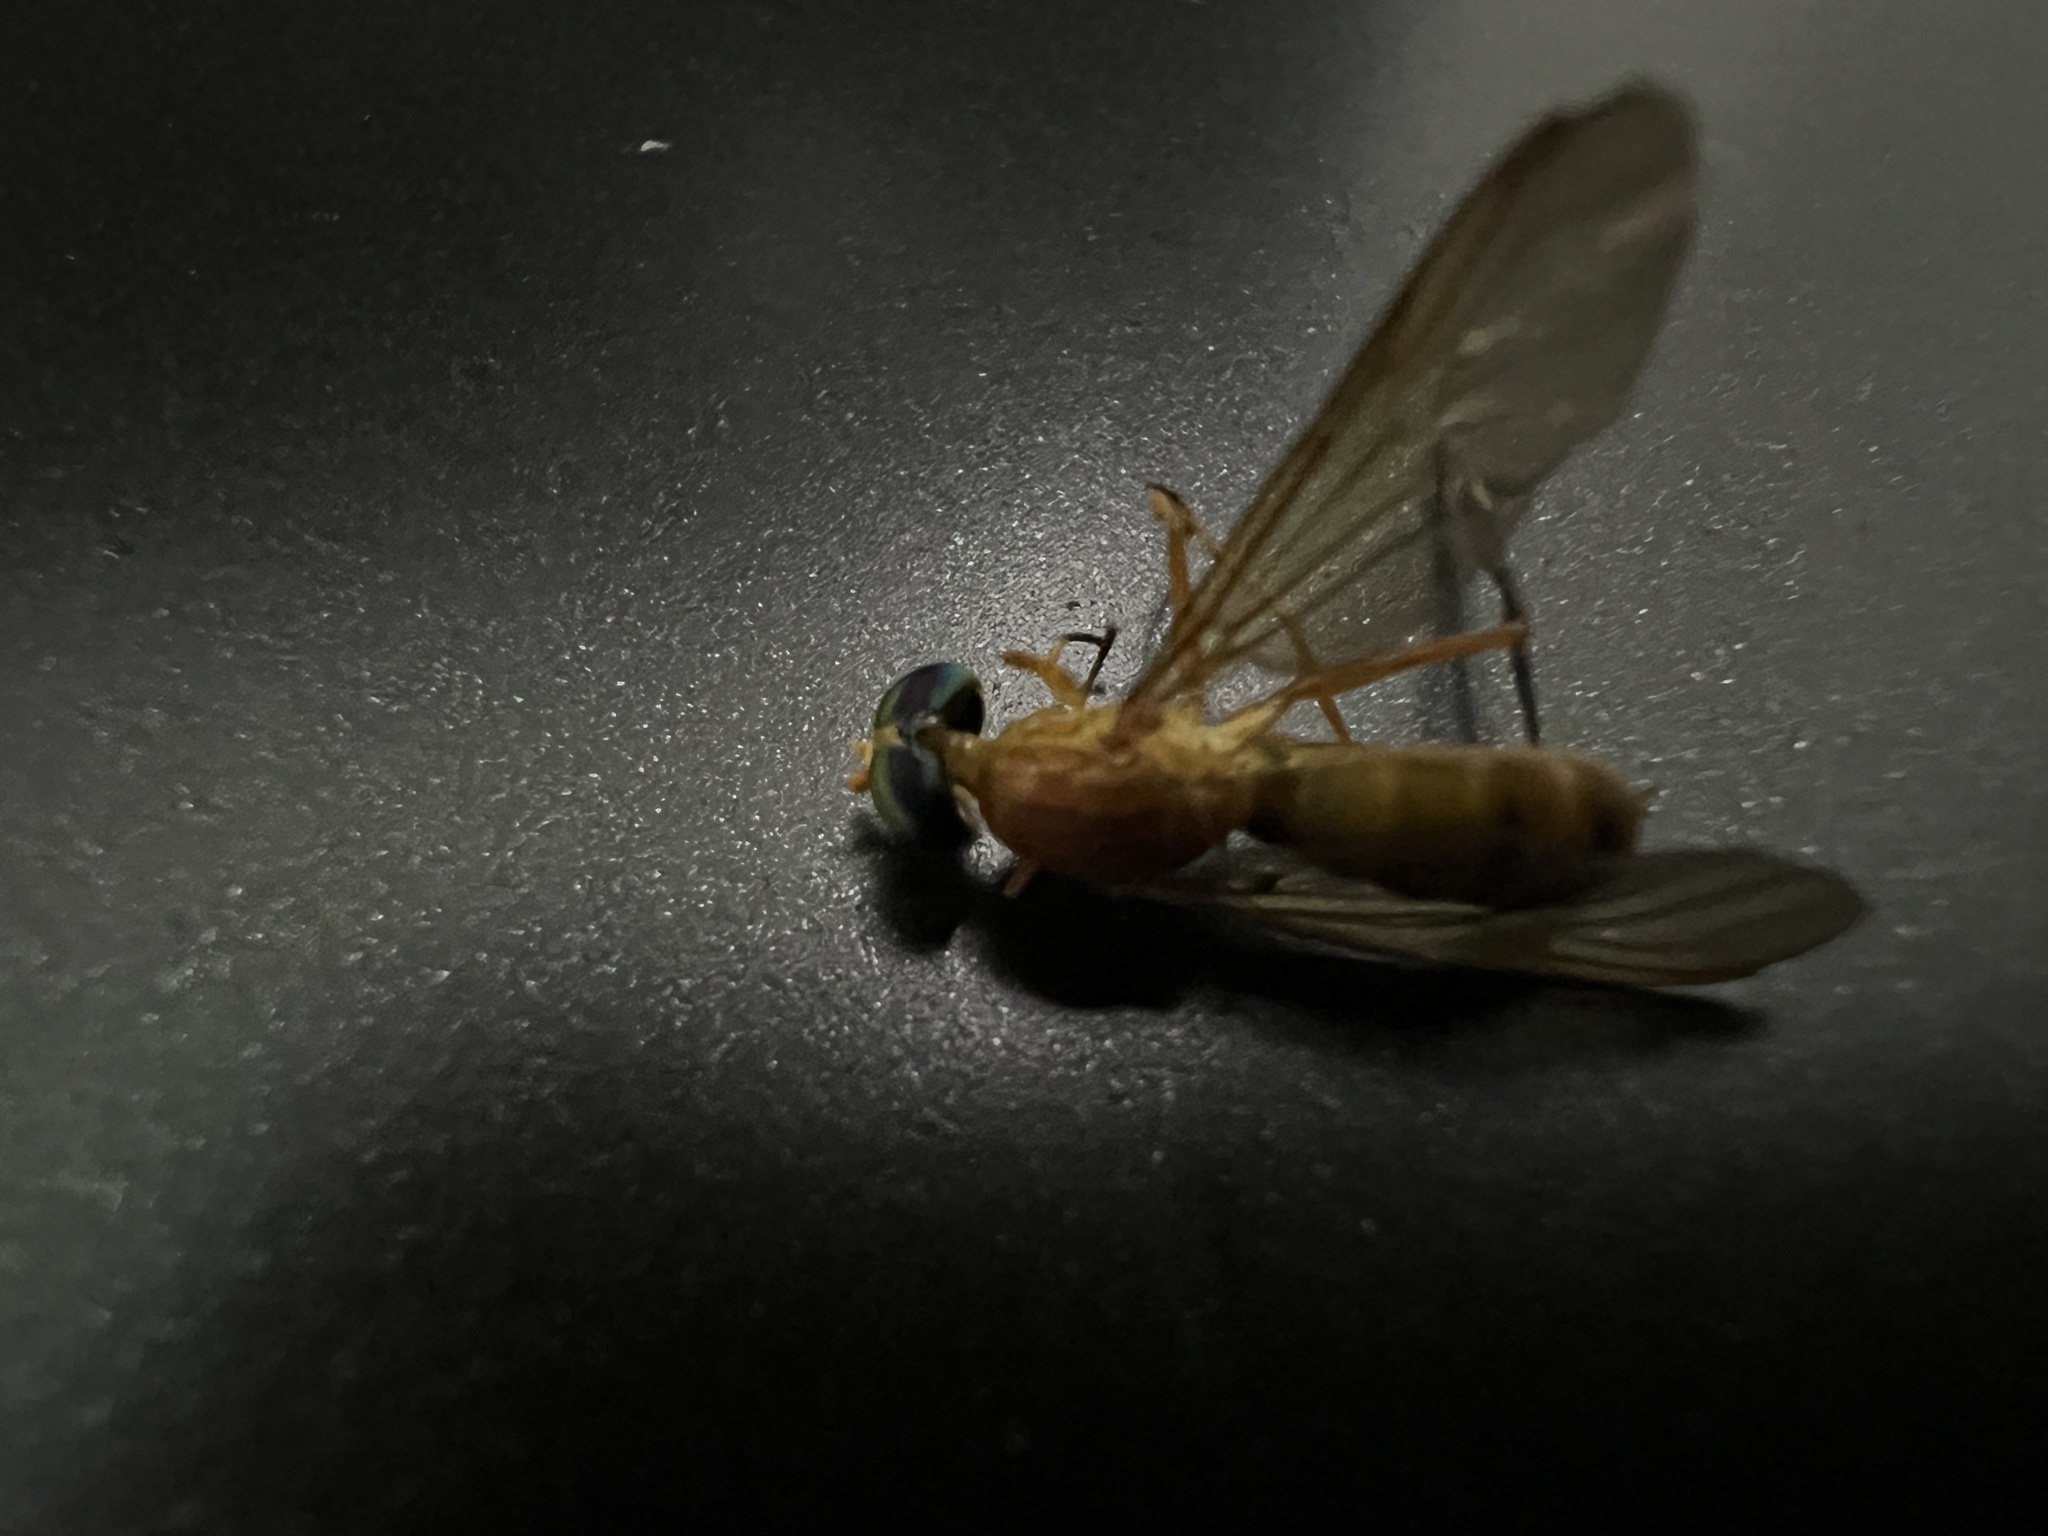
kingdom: Animalia
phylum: Arthropoda
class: Insecta
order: Diptera
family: Stratiomyidae
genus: Ptecticus
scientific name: Ptecticus testaceus
